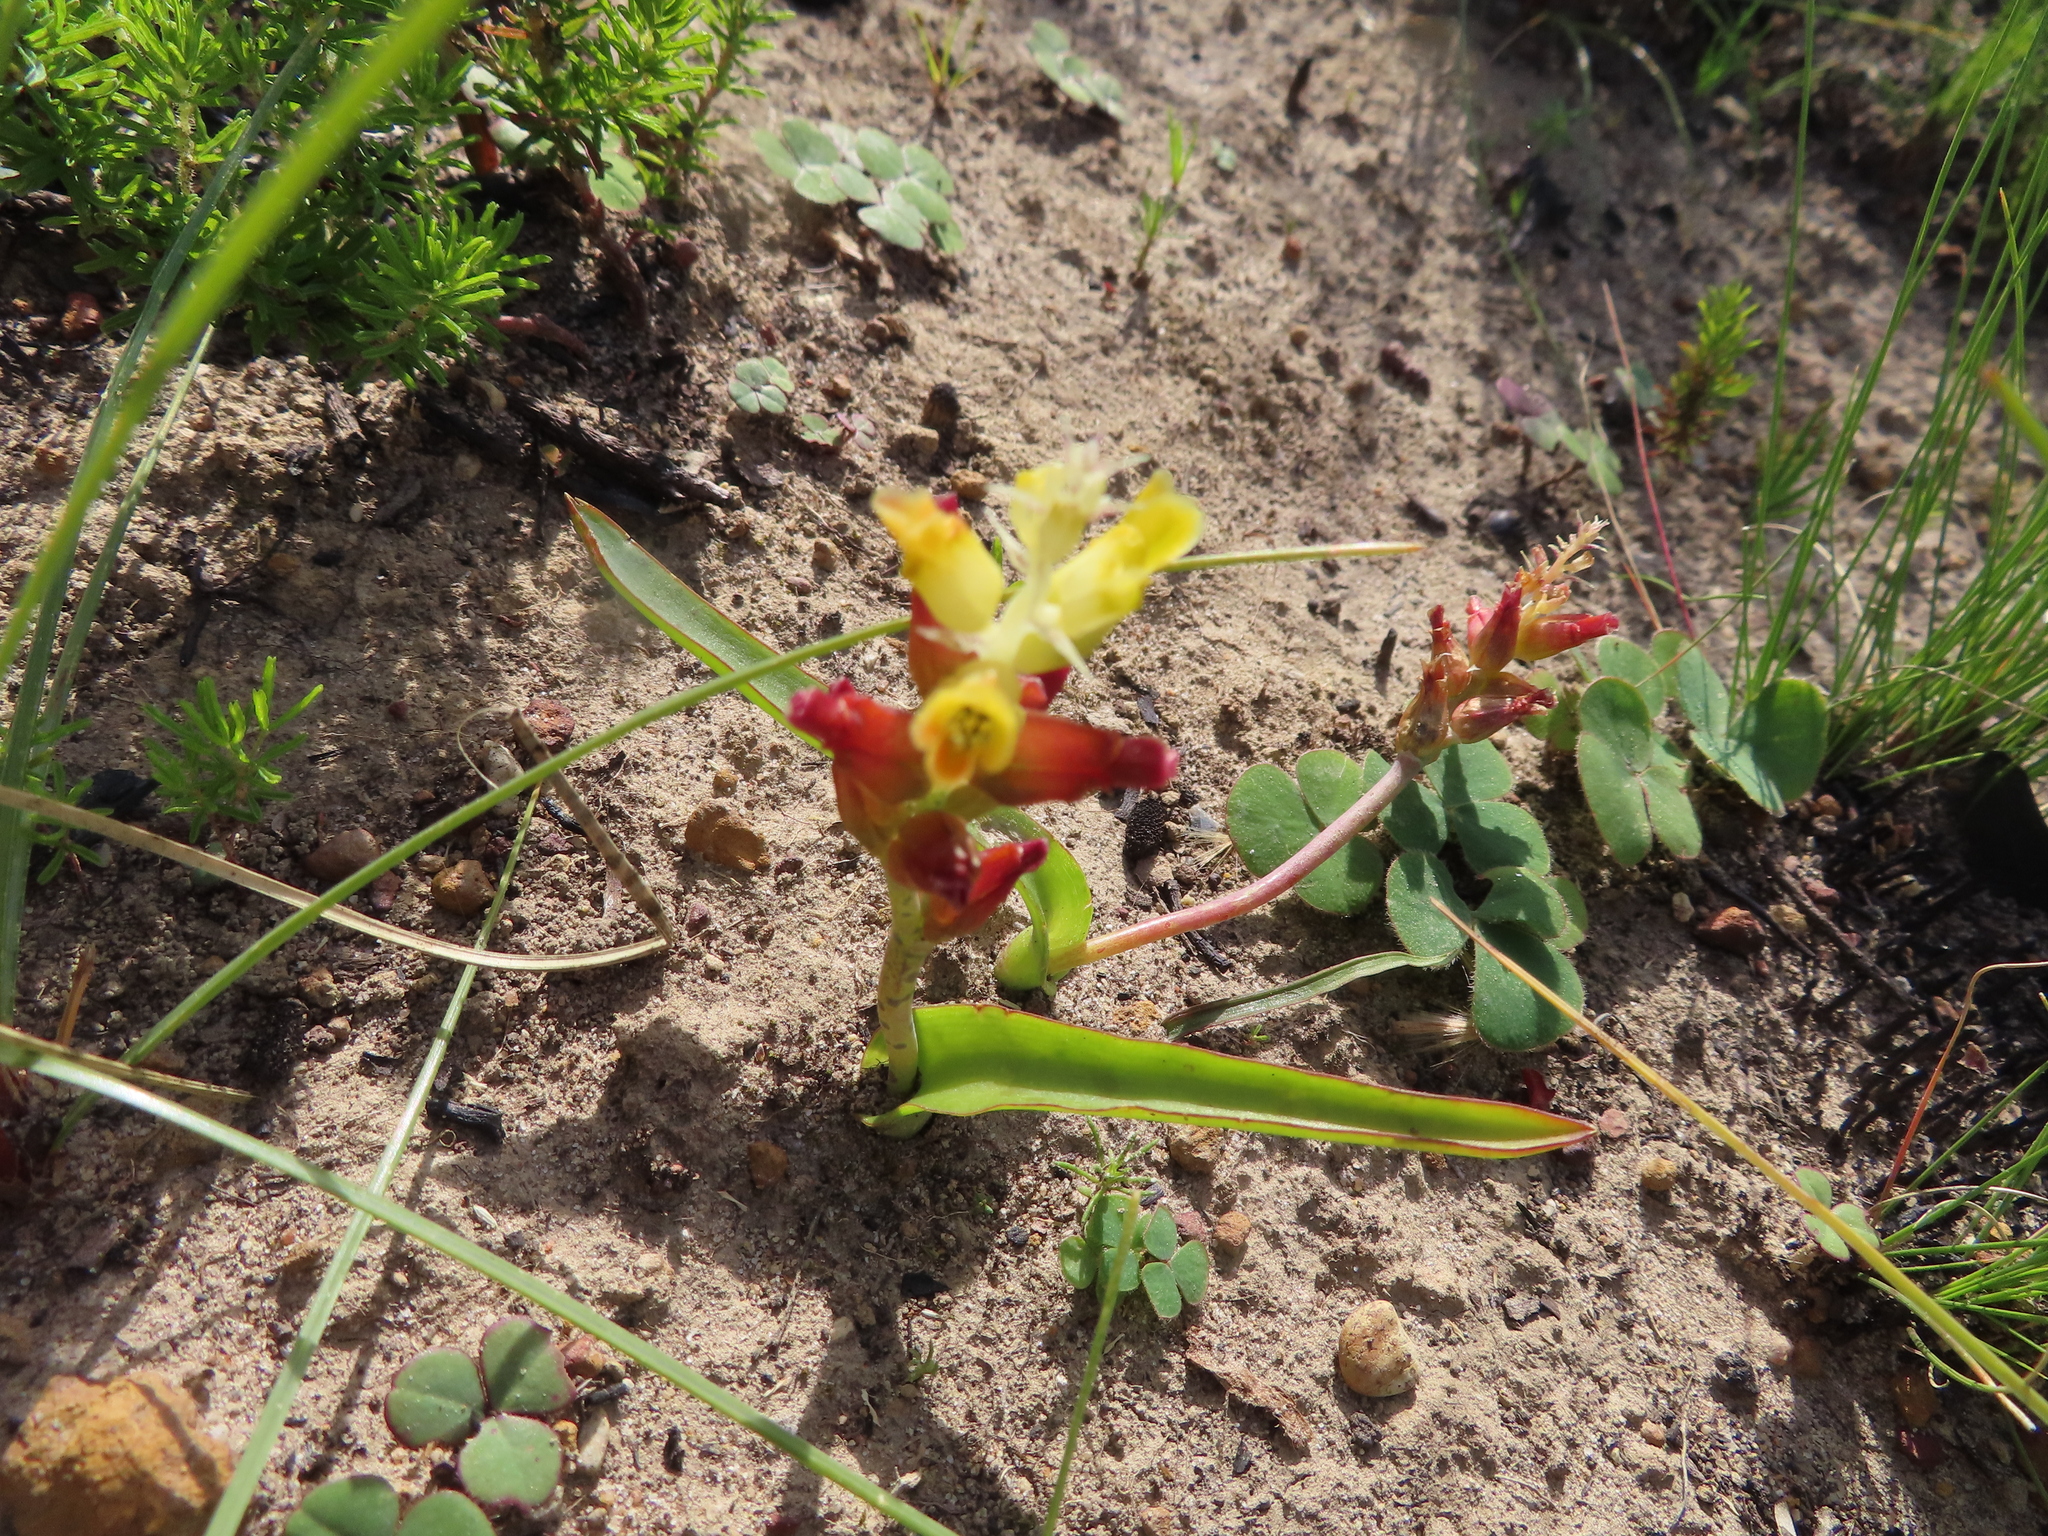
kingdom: Plantae
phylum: Tracheophyta
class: Liliopsida
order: Asparagales
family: Asparagaceae
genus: Lachenalia
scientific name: Lachenalia lutea
